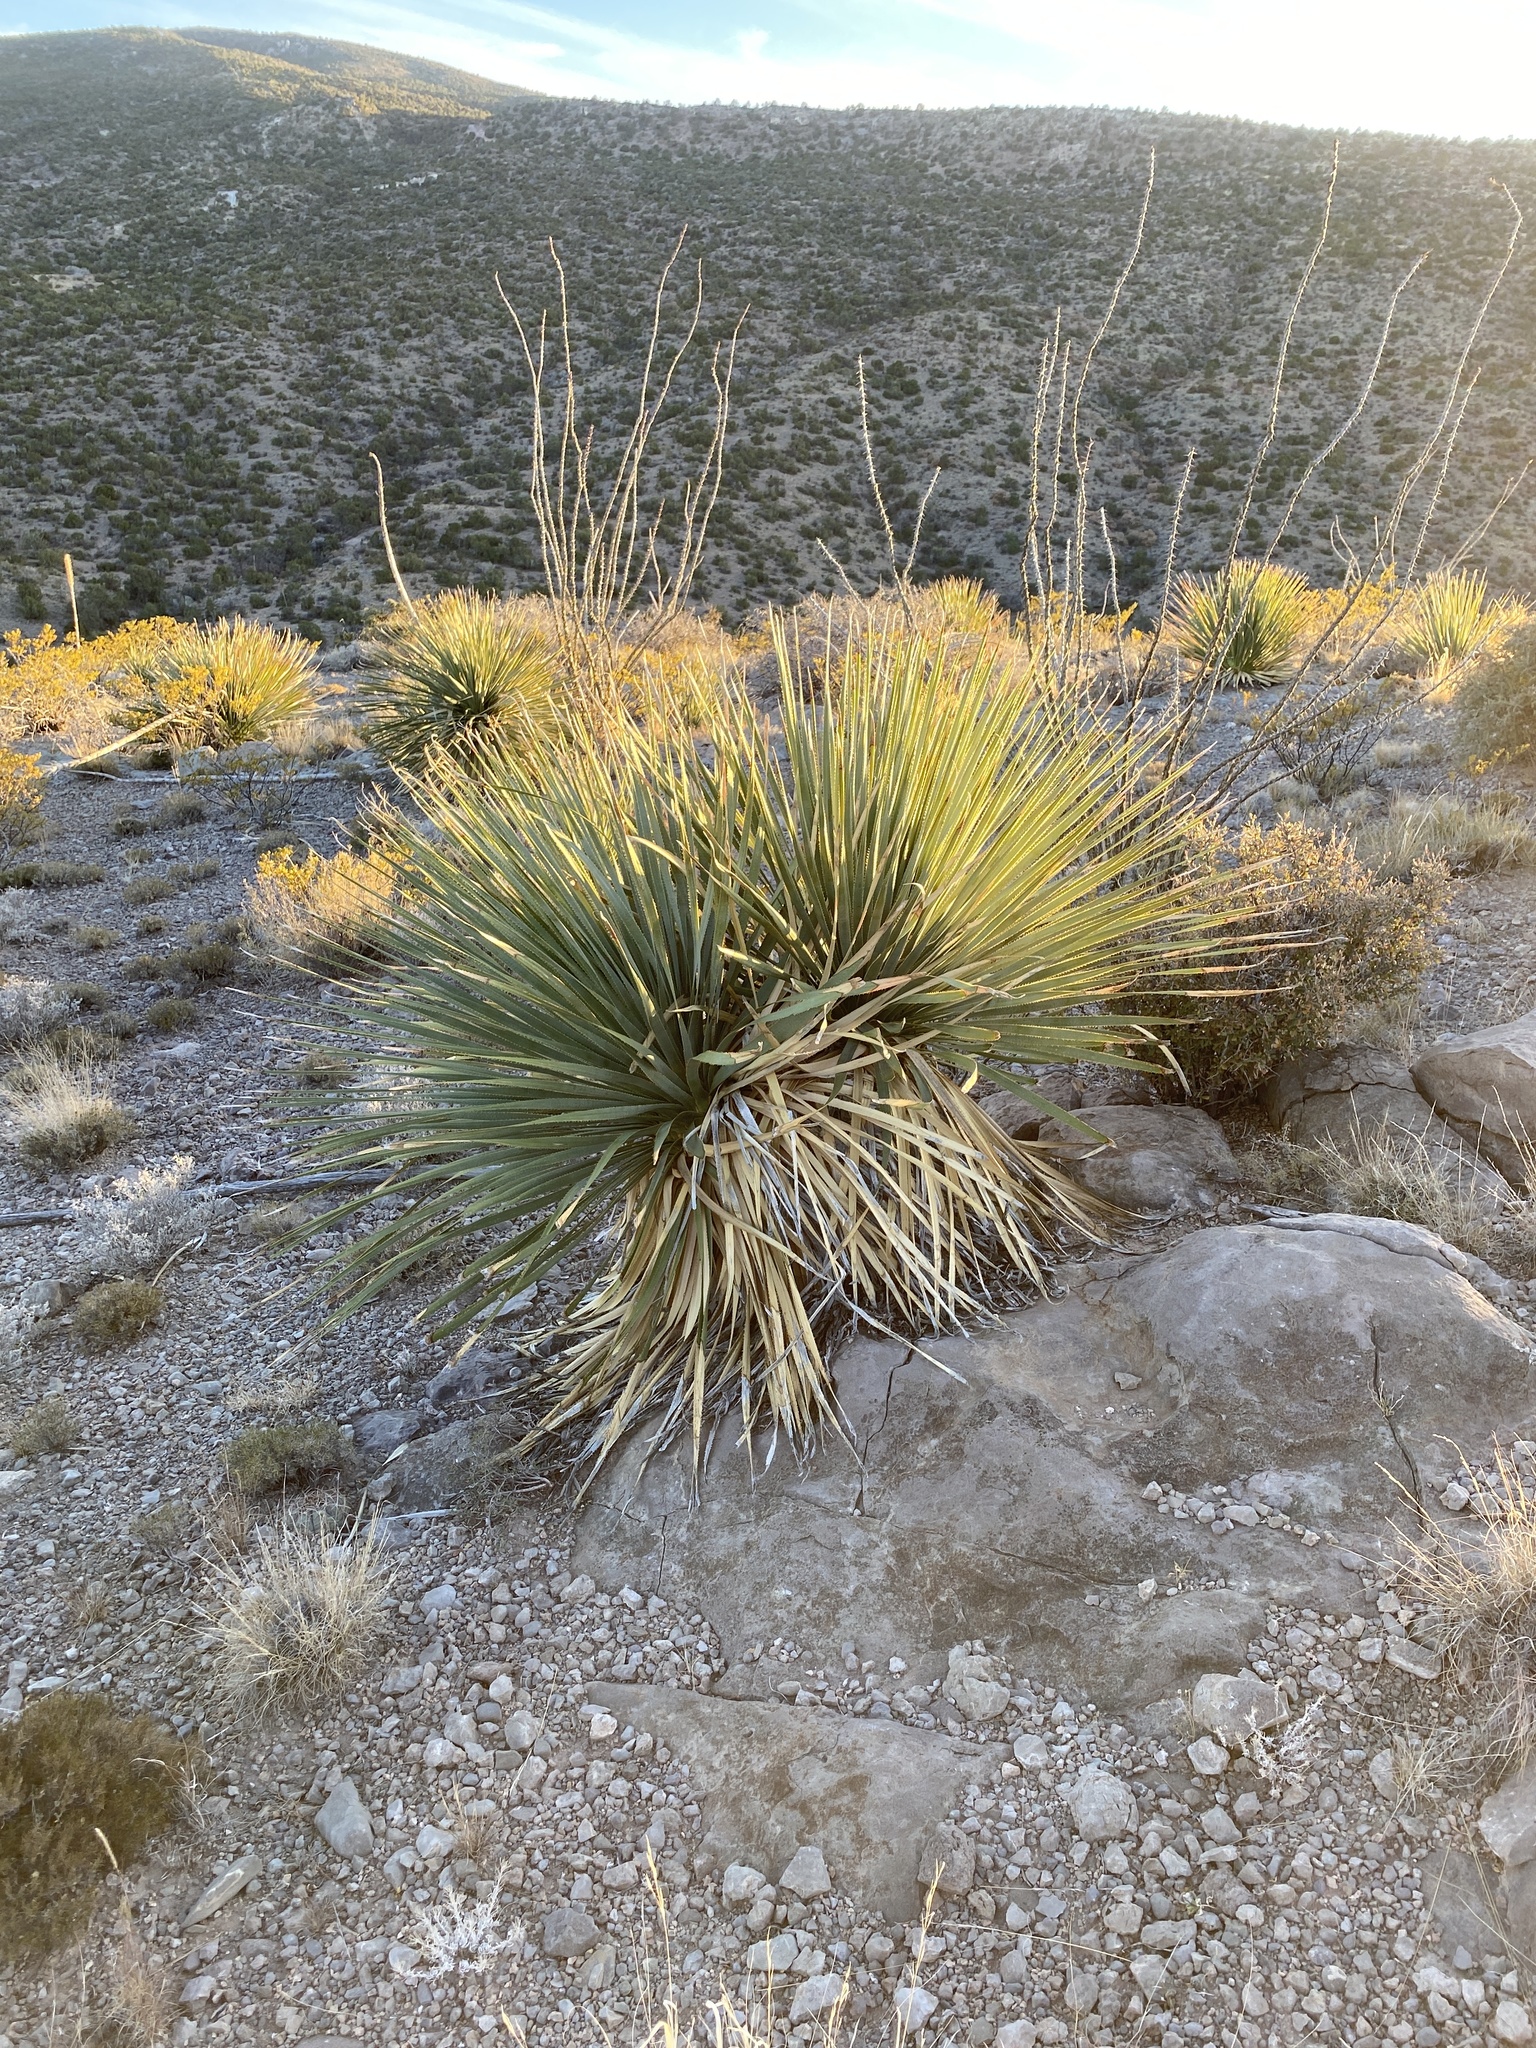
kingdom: Plantae
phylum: Tracheophyta
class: Liliopsida
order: Asparagales
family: Asparagaceae
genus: Dasylirion
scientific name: Dasylirion wheeleri
